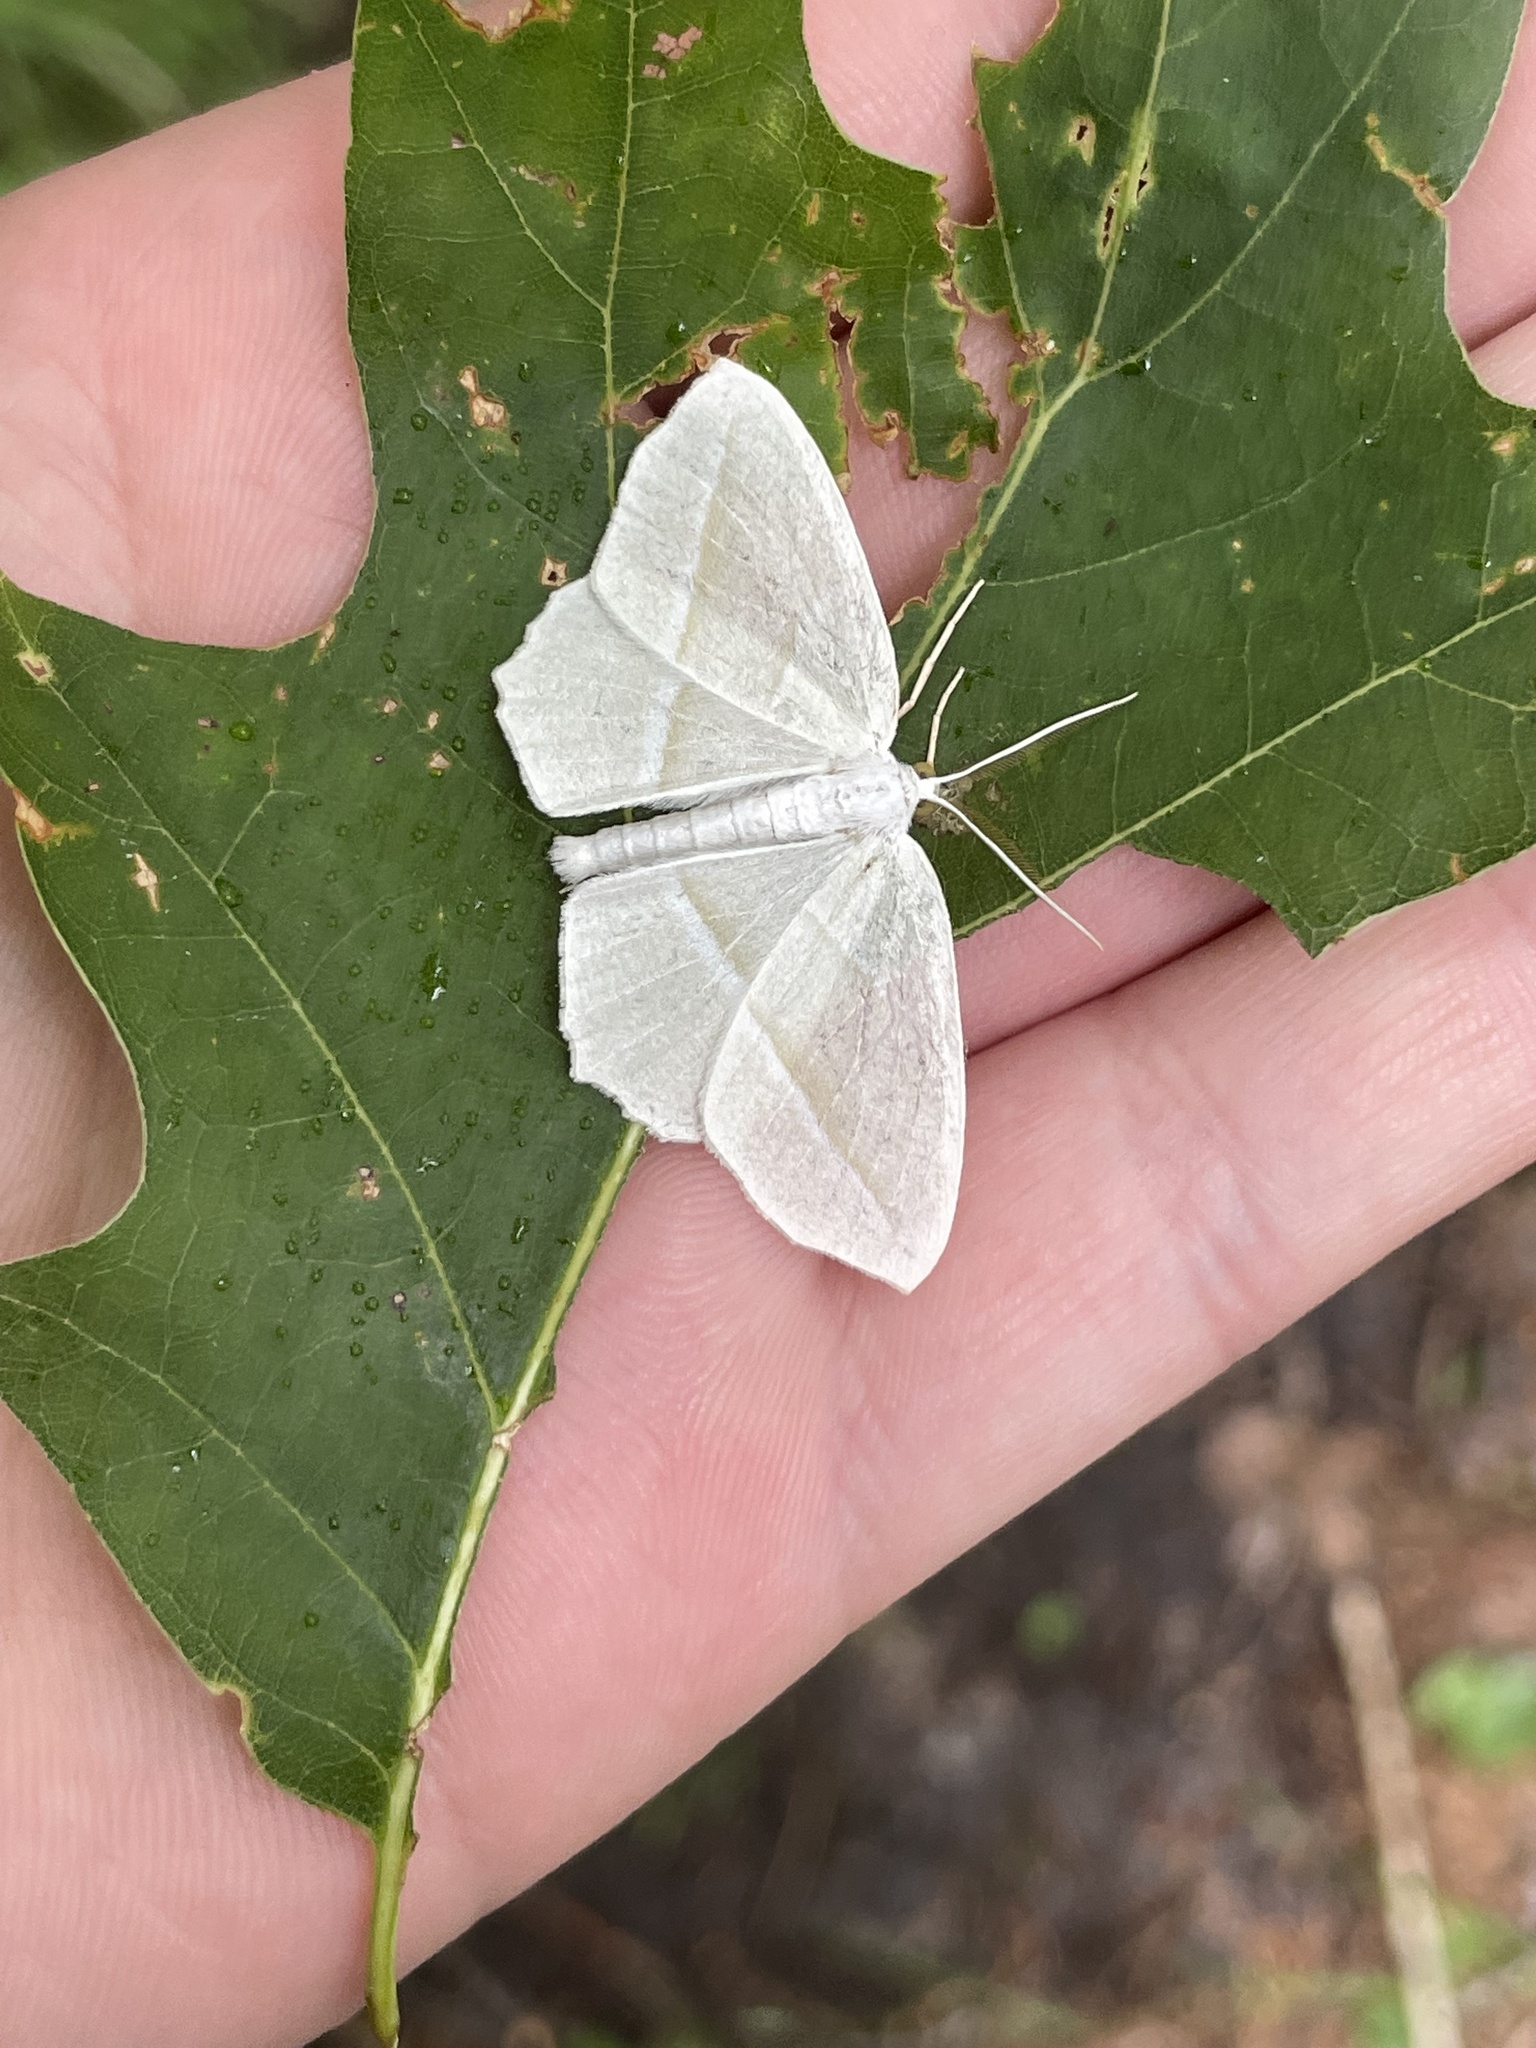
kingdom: Animalia
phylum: Arthropoda
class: Insecta
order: Lepidoptera
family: Geometridae
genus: Campaea
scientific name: Campaea perlata
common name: Fringed looper
